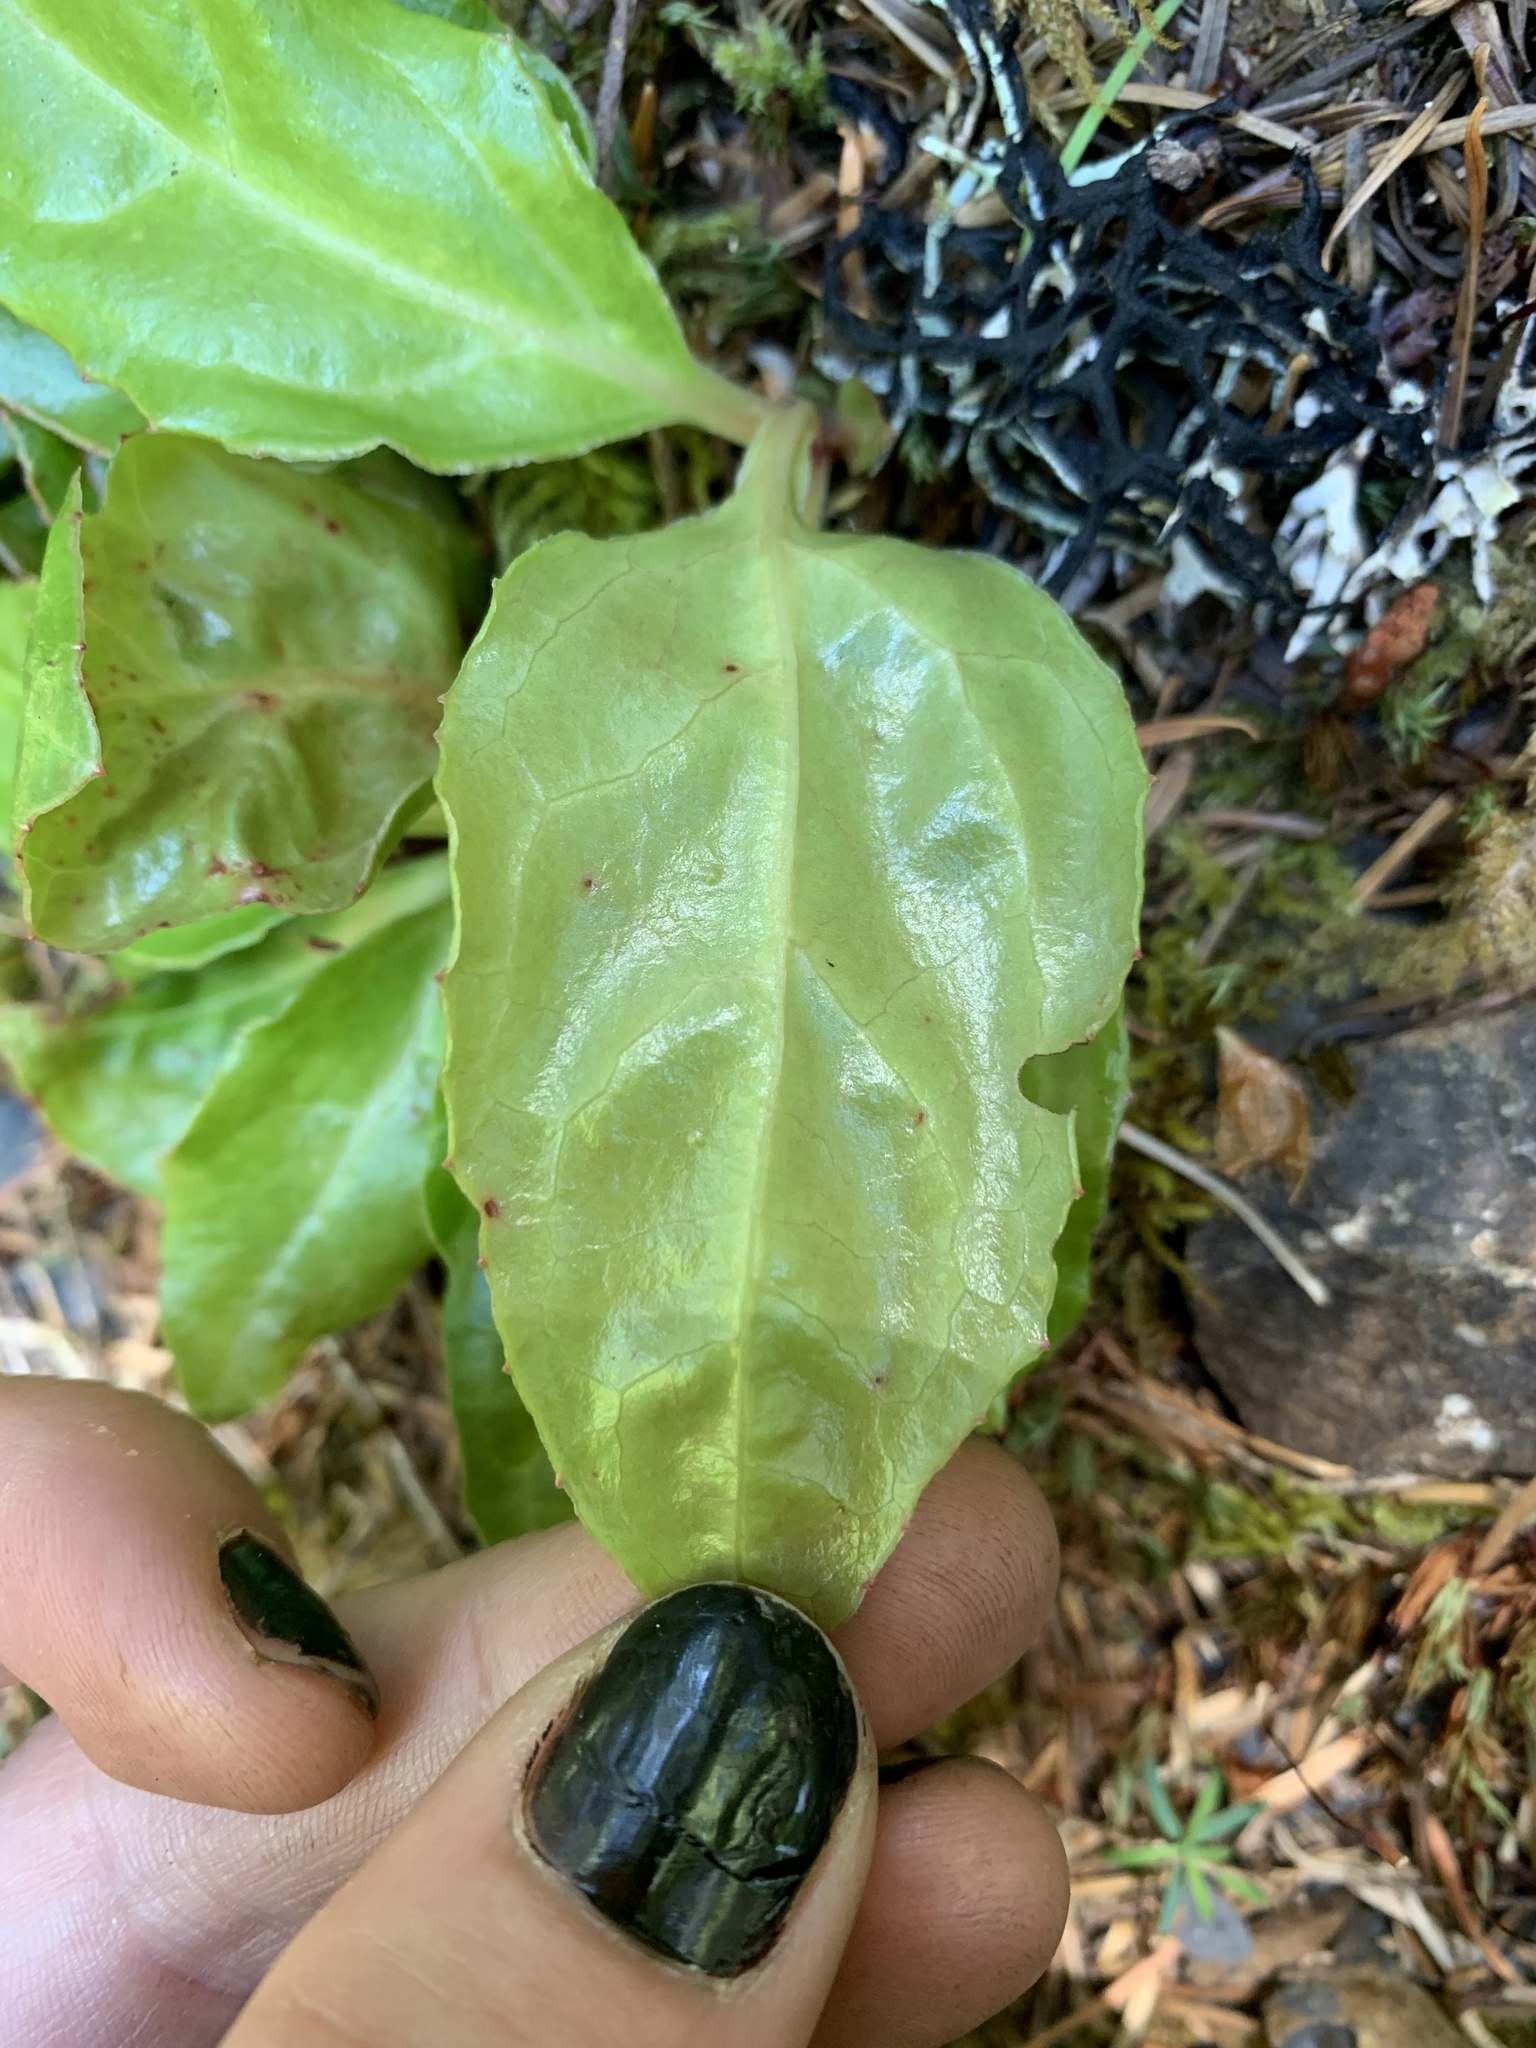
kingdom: Plantae
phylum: Tracheophyta
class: Magnoliopsida
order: Ericales
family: Ericaceae
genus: Pyrola
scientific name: Pyrola picta
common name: White-vein wintergreen
